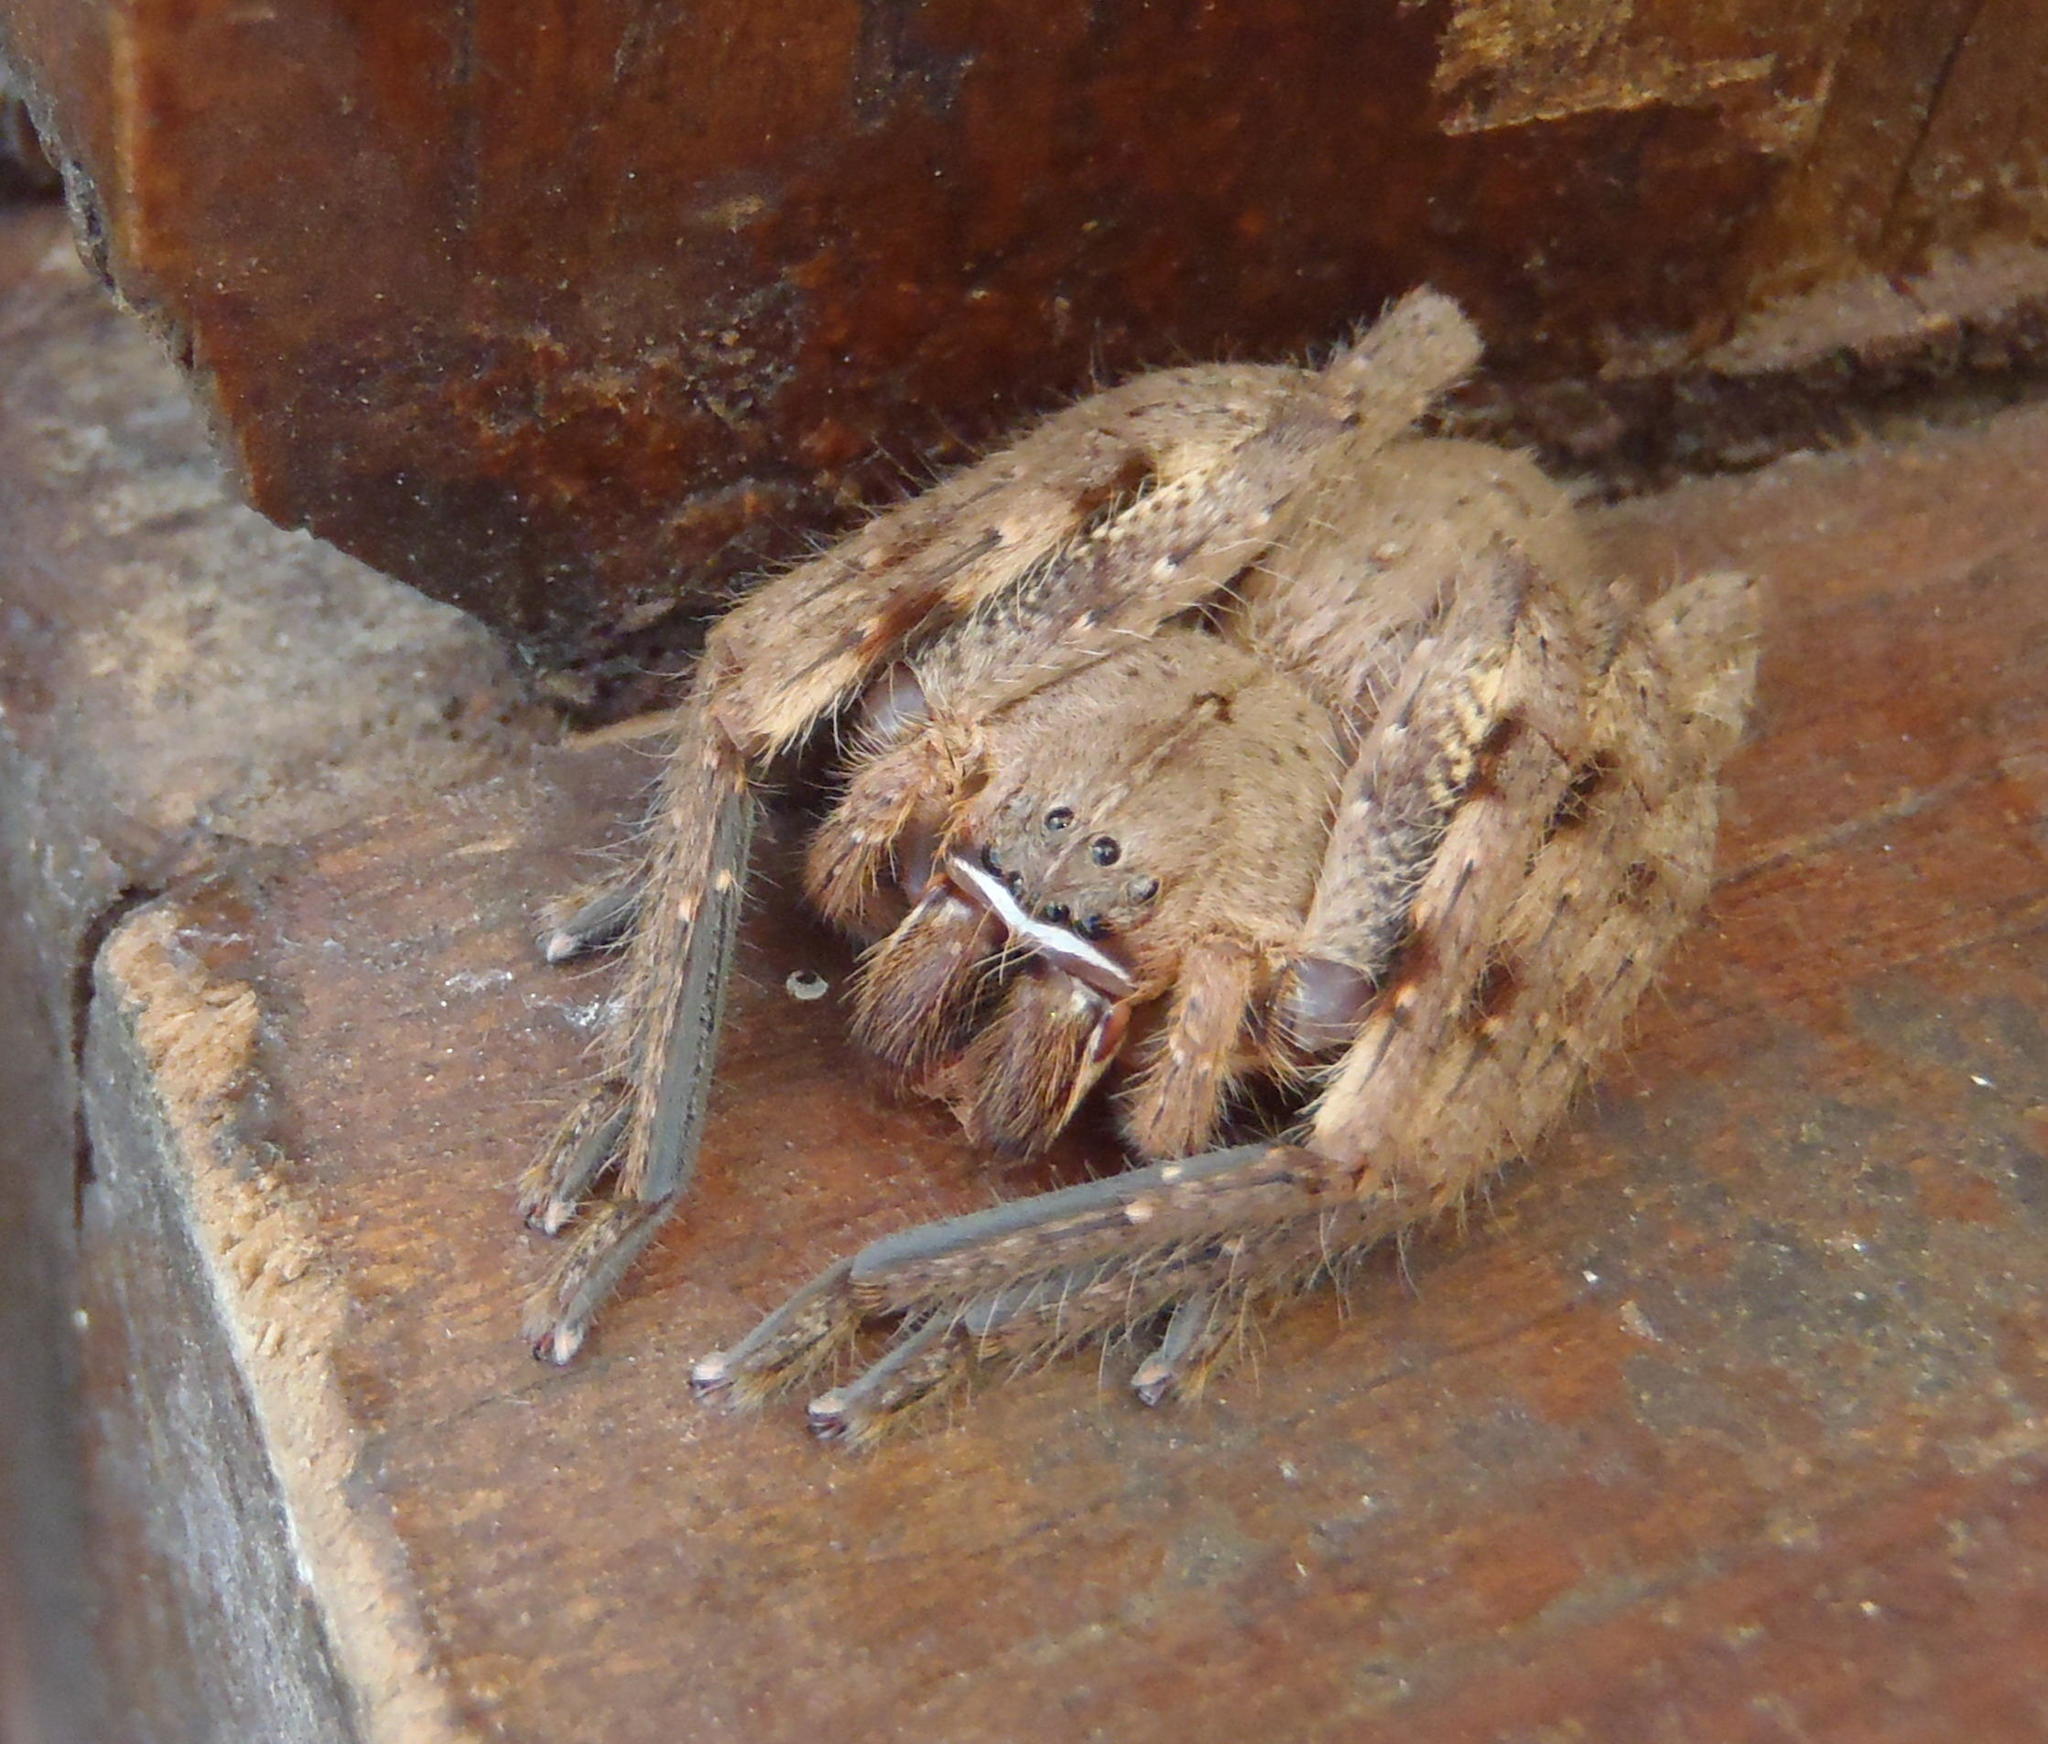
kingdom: Animalia
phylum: Arthropoda
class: Arachnida
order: Araneae
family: Sparassidae
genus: Palystes
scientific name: Palystes superciliosus
